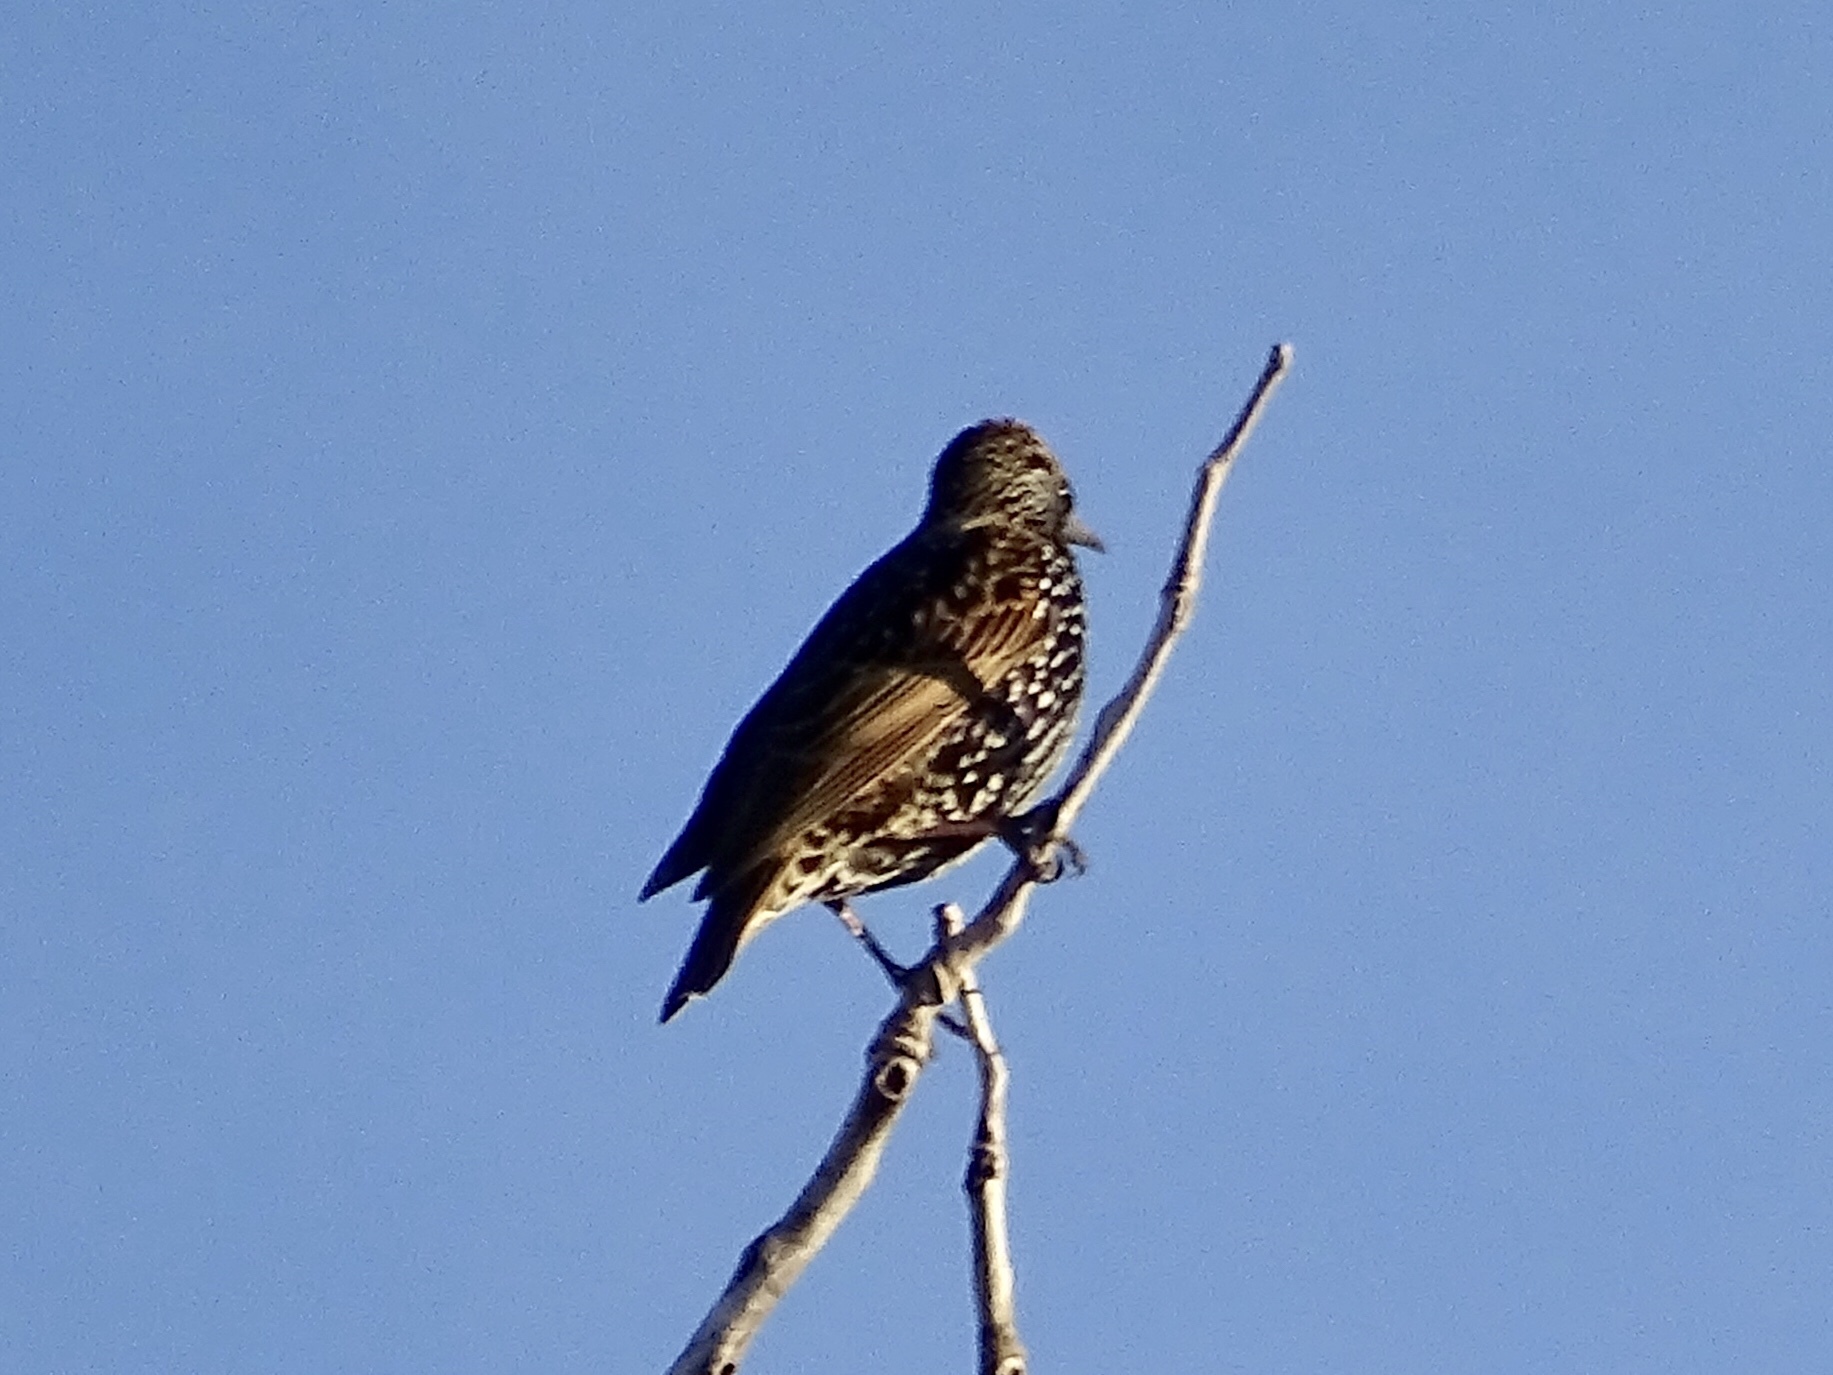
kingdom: Animalia
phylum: Chordata
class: Aves
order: Passeriformes
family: Sturnidae
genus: Sturnus
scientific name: Sturnus vulgaris
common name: Common starling
